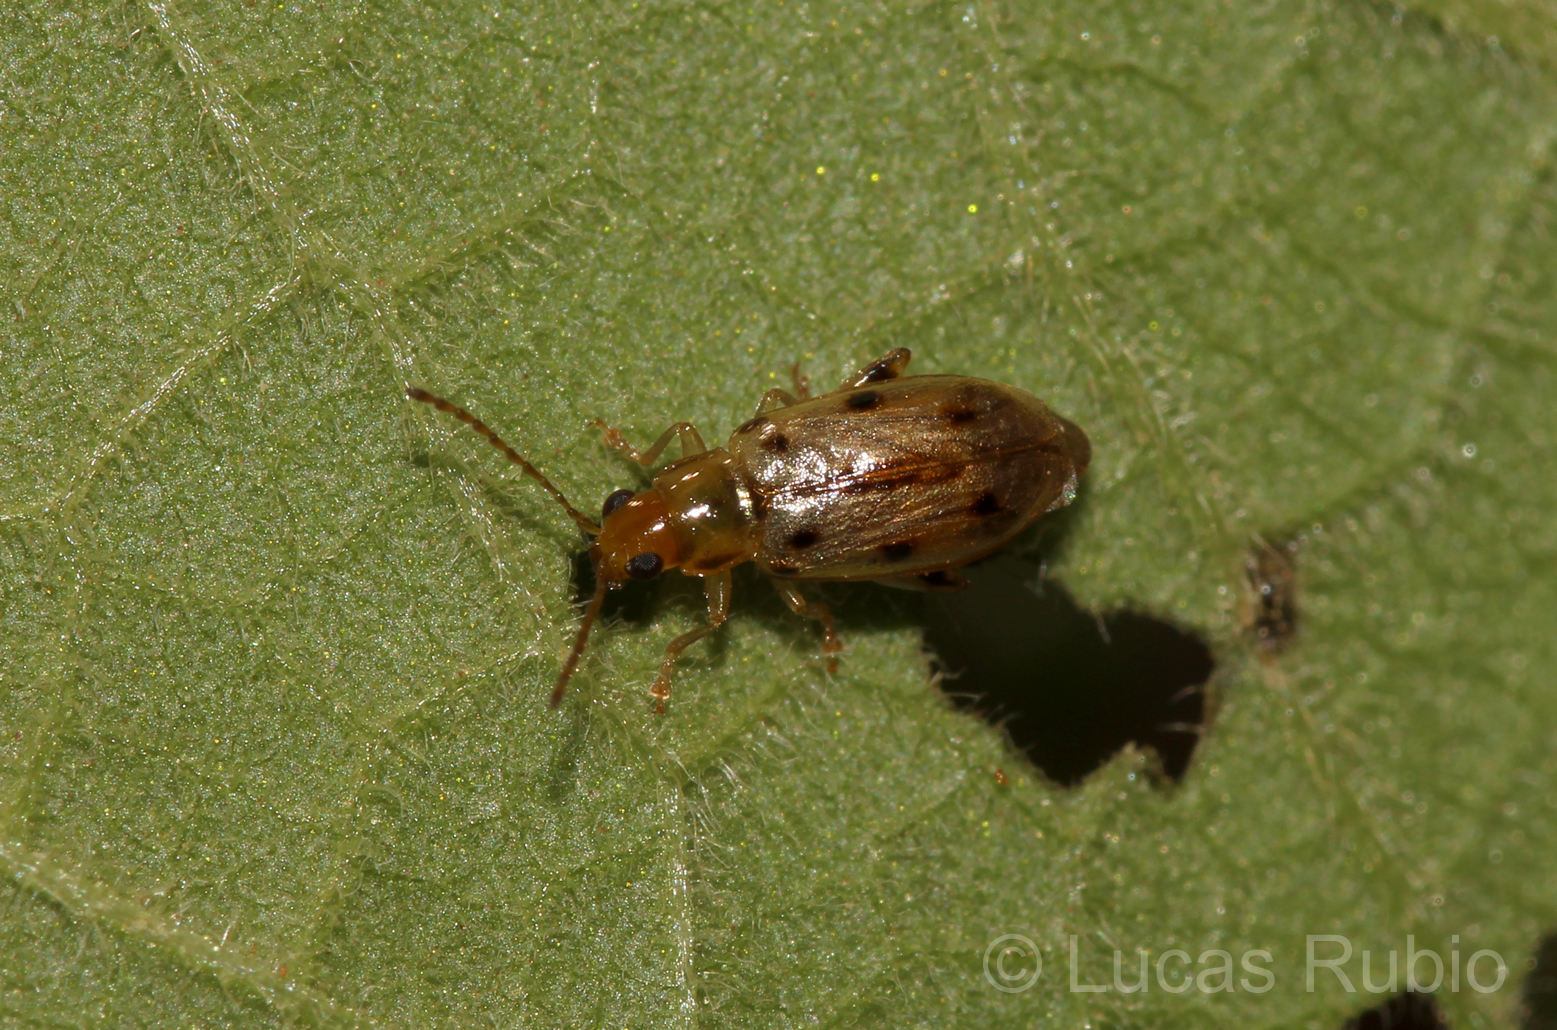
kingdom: Animalia
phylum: Arthropoda
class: Insecta
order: Coleoptera
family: Chrysomelidae
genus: Systena
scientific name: Systena
